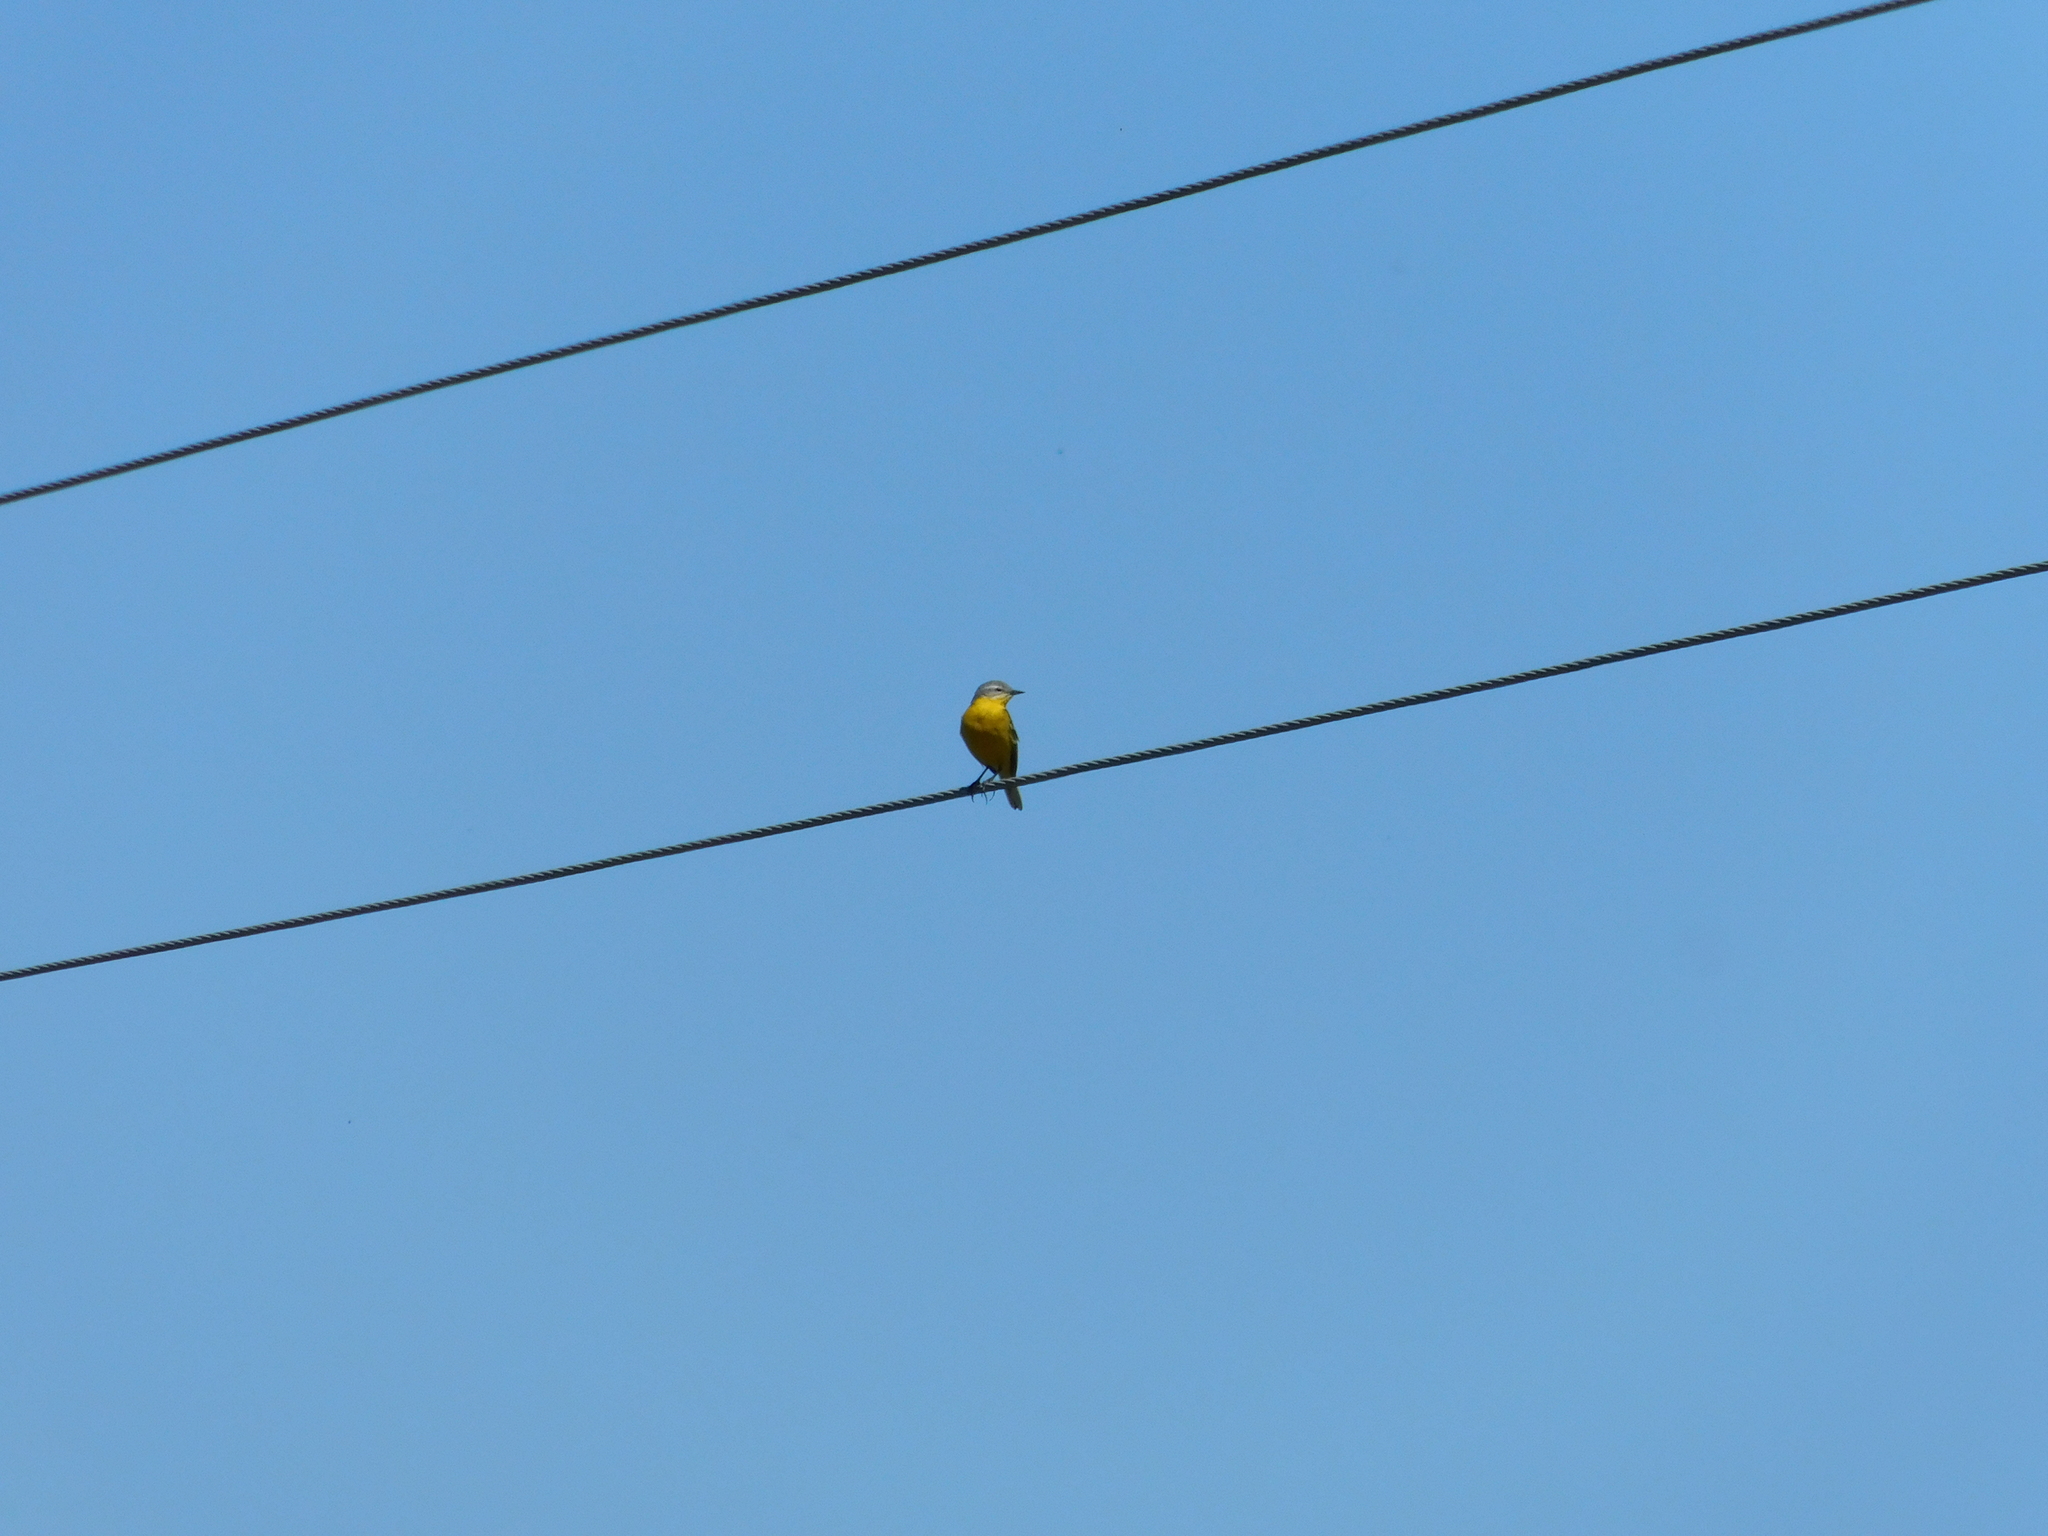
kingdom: Animalia
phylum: Chordata
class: Aves
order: Passeriformes
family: Motacillidae
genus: Motacilla
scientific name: Motacilla flava
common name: Western yellow wagtail
